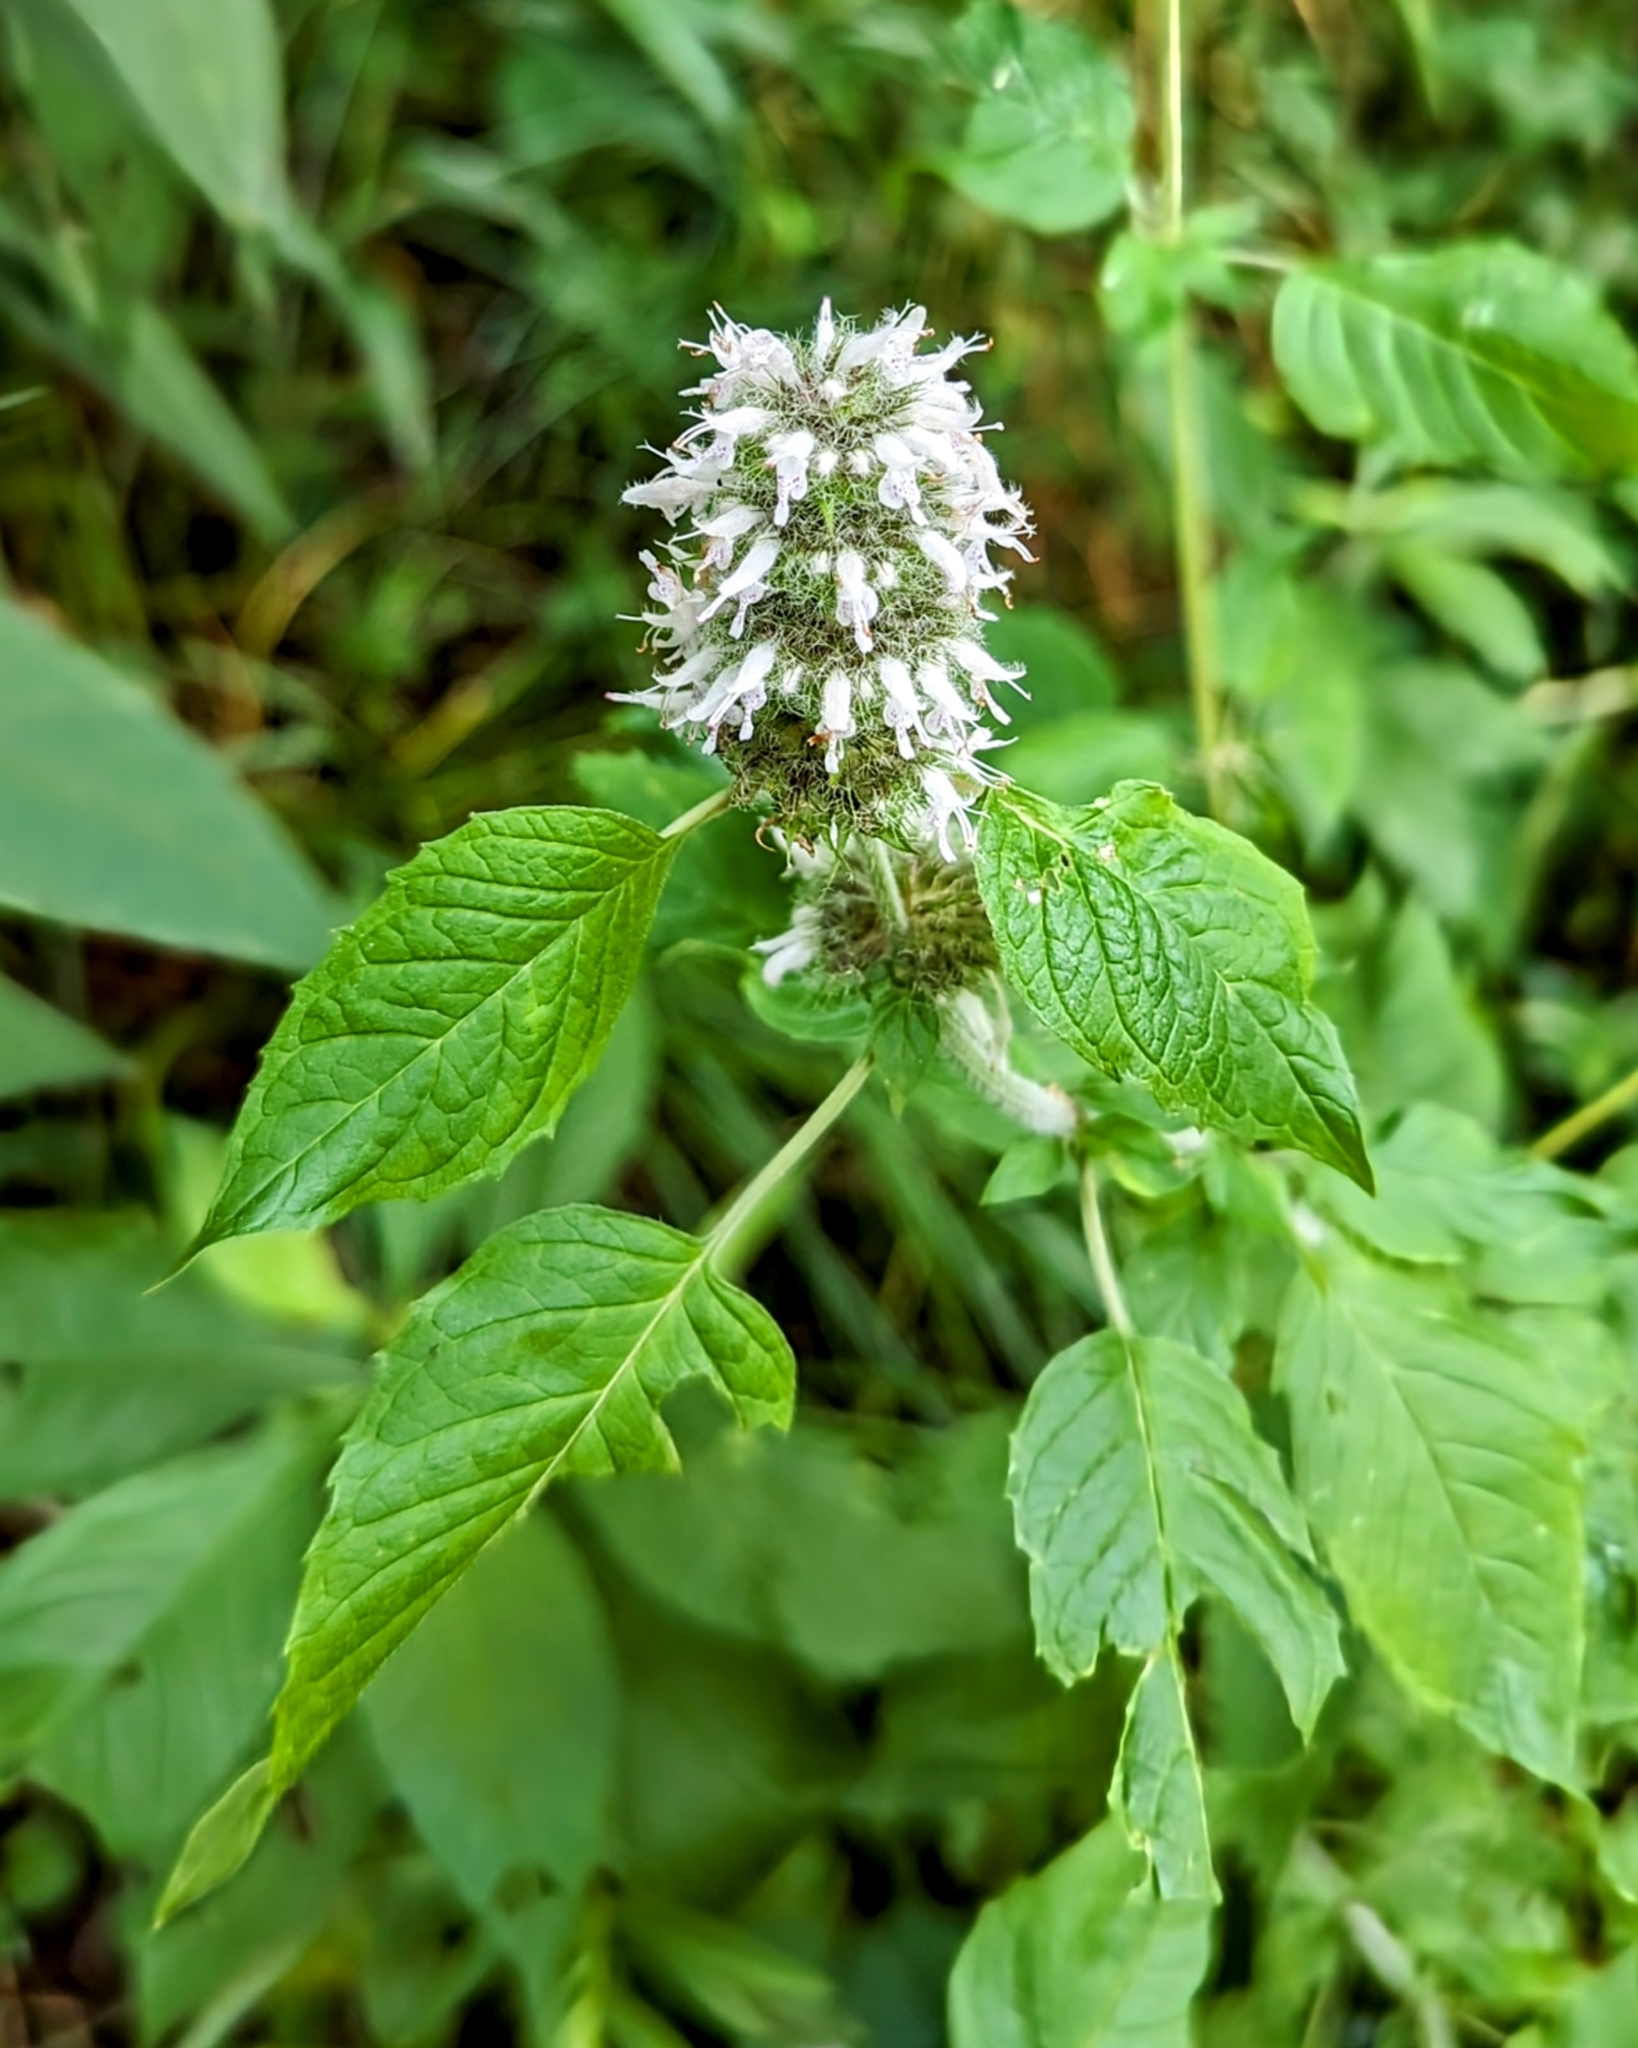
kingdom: Plantae
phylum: Tracheophyta
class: Magnoliopsida
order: Lamiales
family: Lamiaceae
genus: Blephilia
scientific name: Blephilia hirsuta
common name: Hairy blephilia
